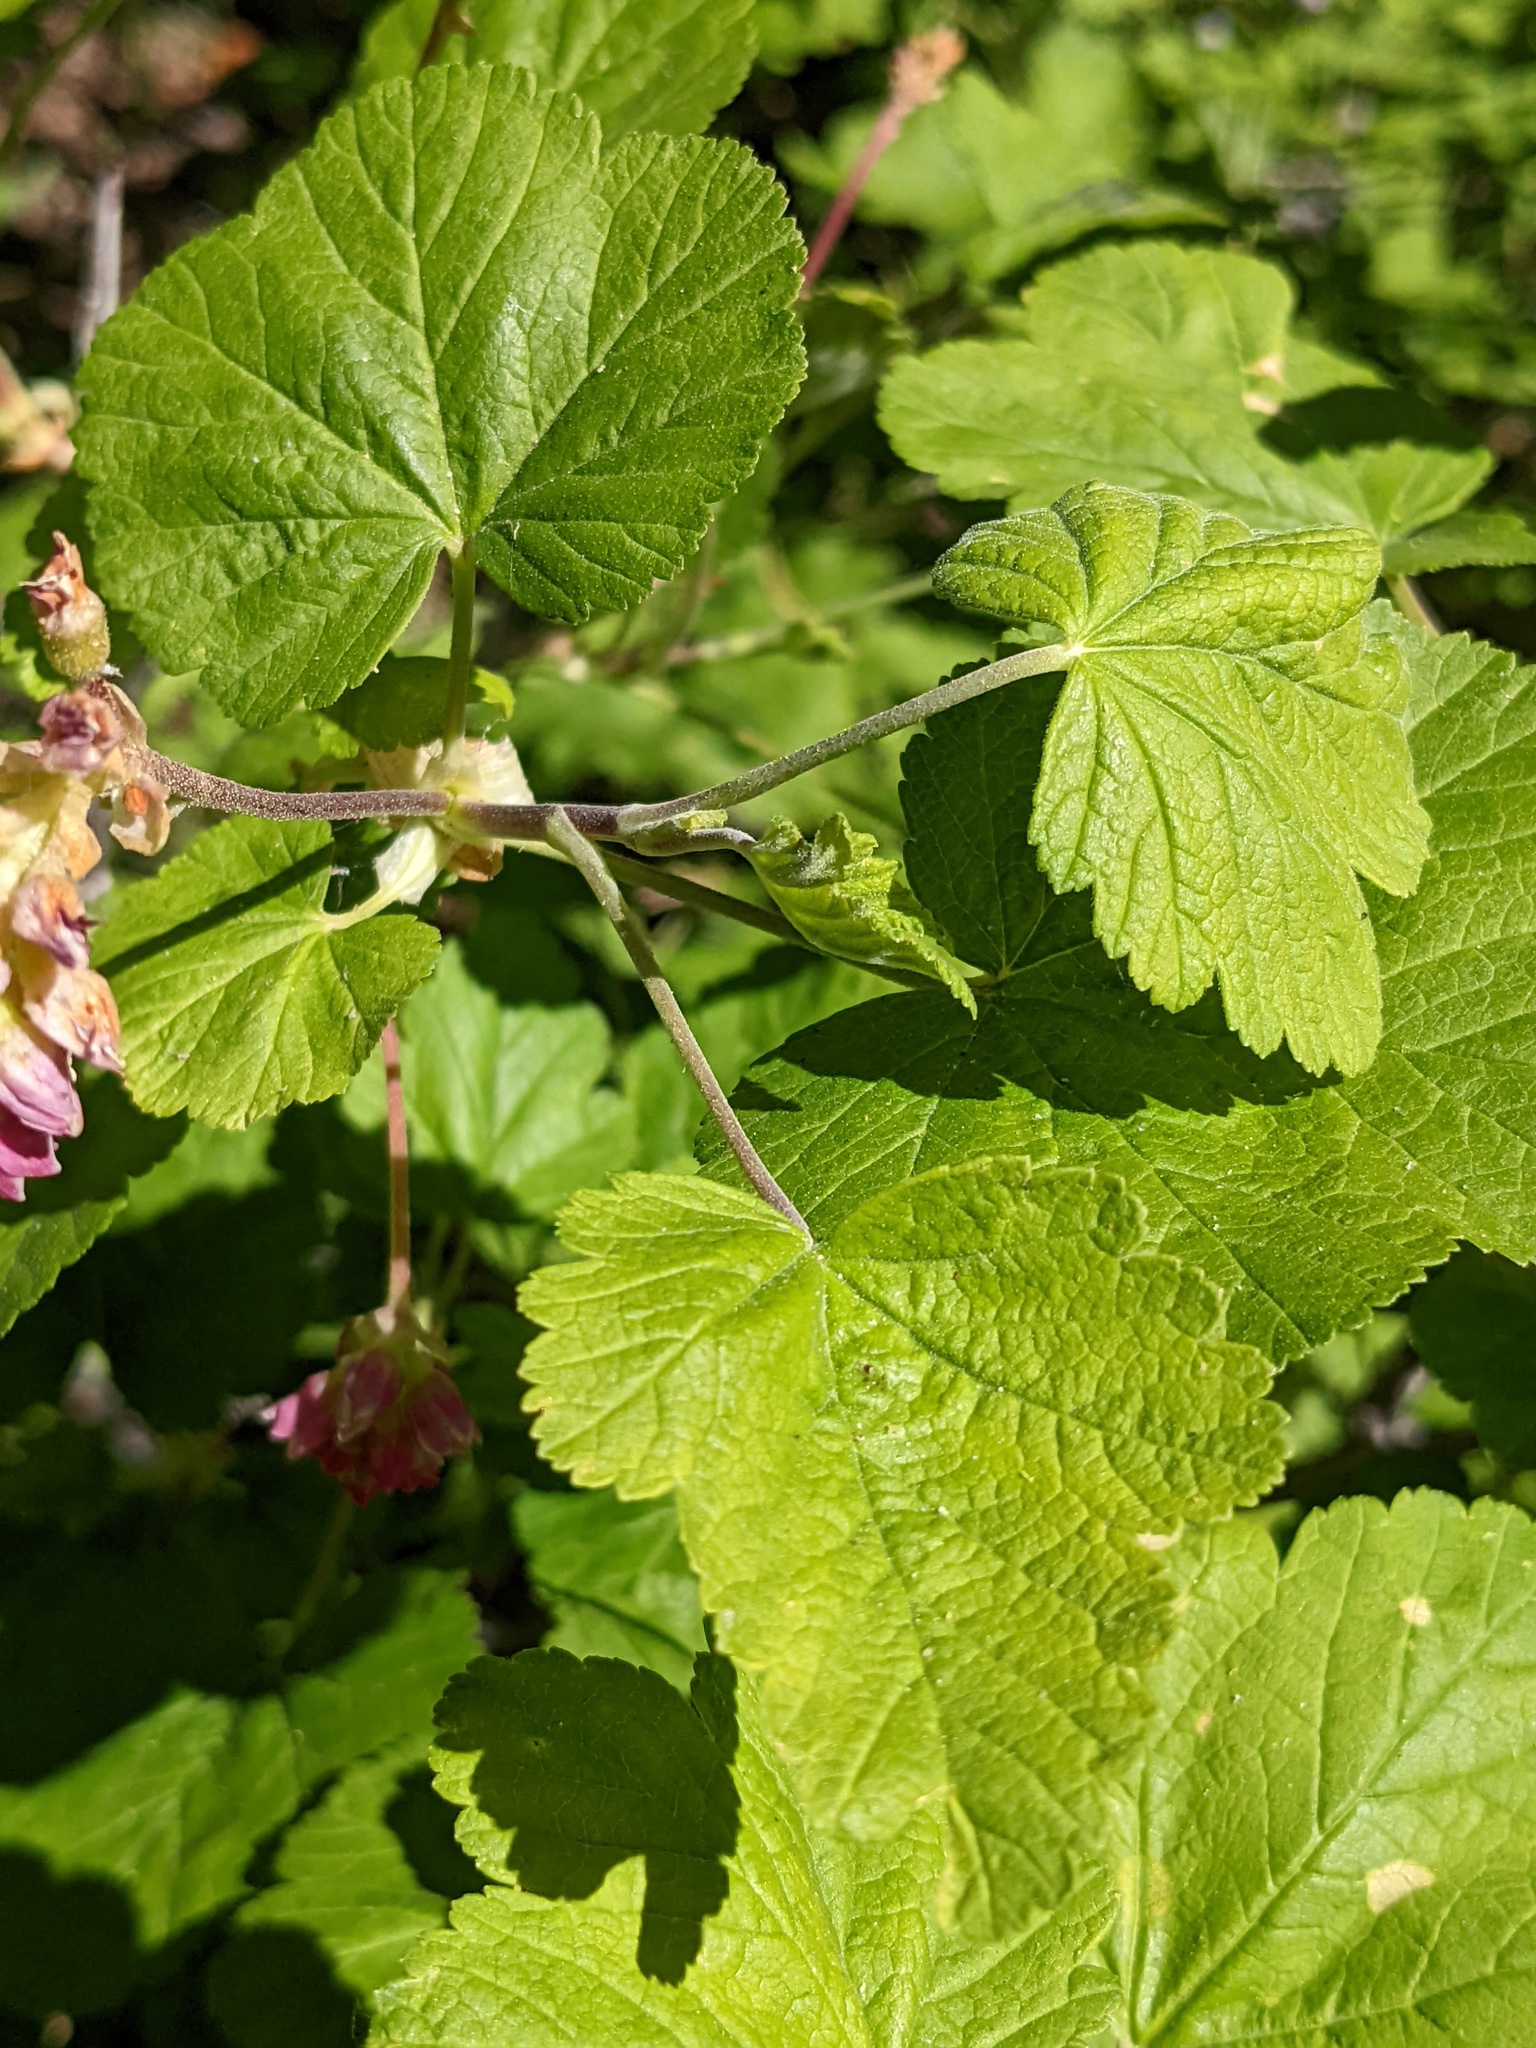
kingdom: Plantae
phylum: Tracheophyta
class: Magnoliopsida
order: Saxifragales
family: Grossulariaceae
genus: Ribes
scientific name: Ribes nevadense
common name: Mountain pink currant
